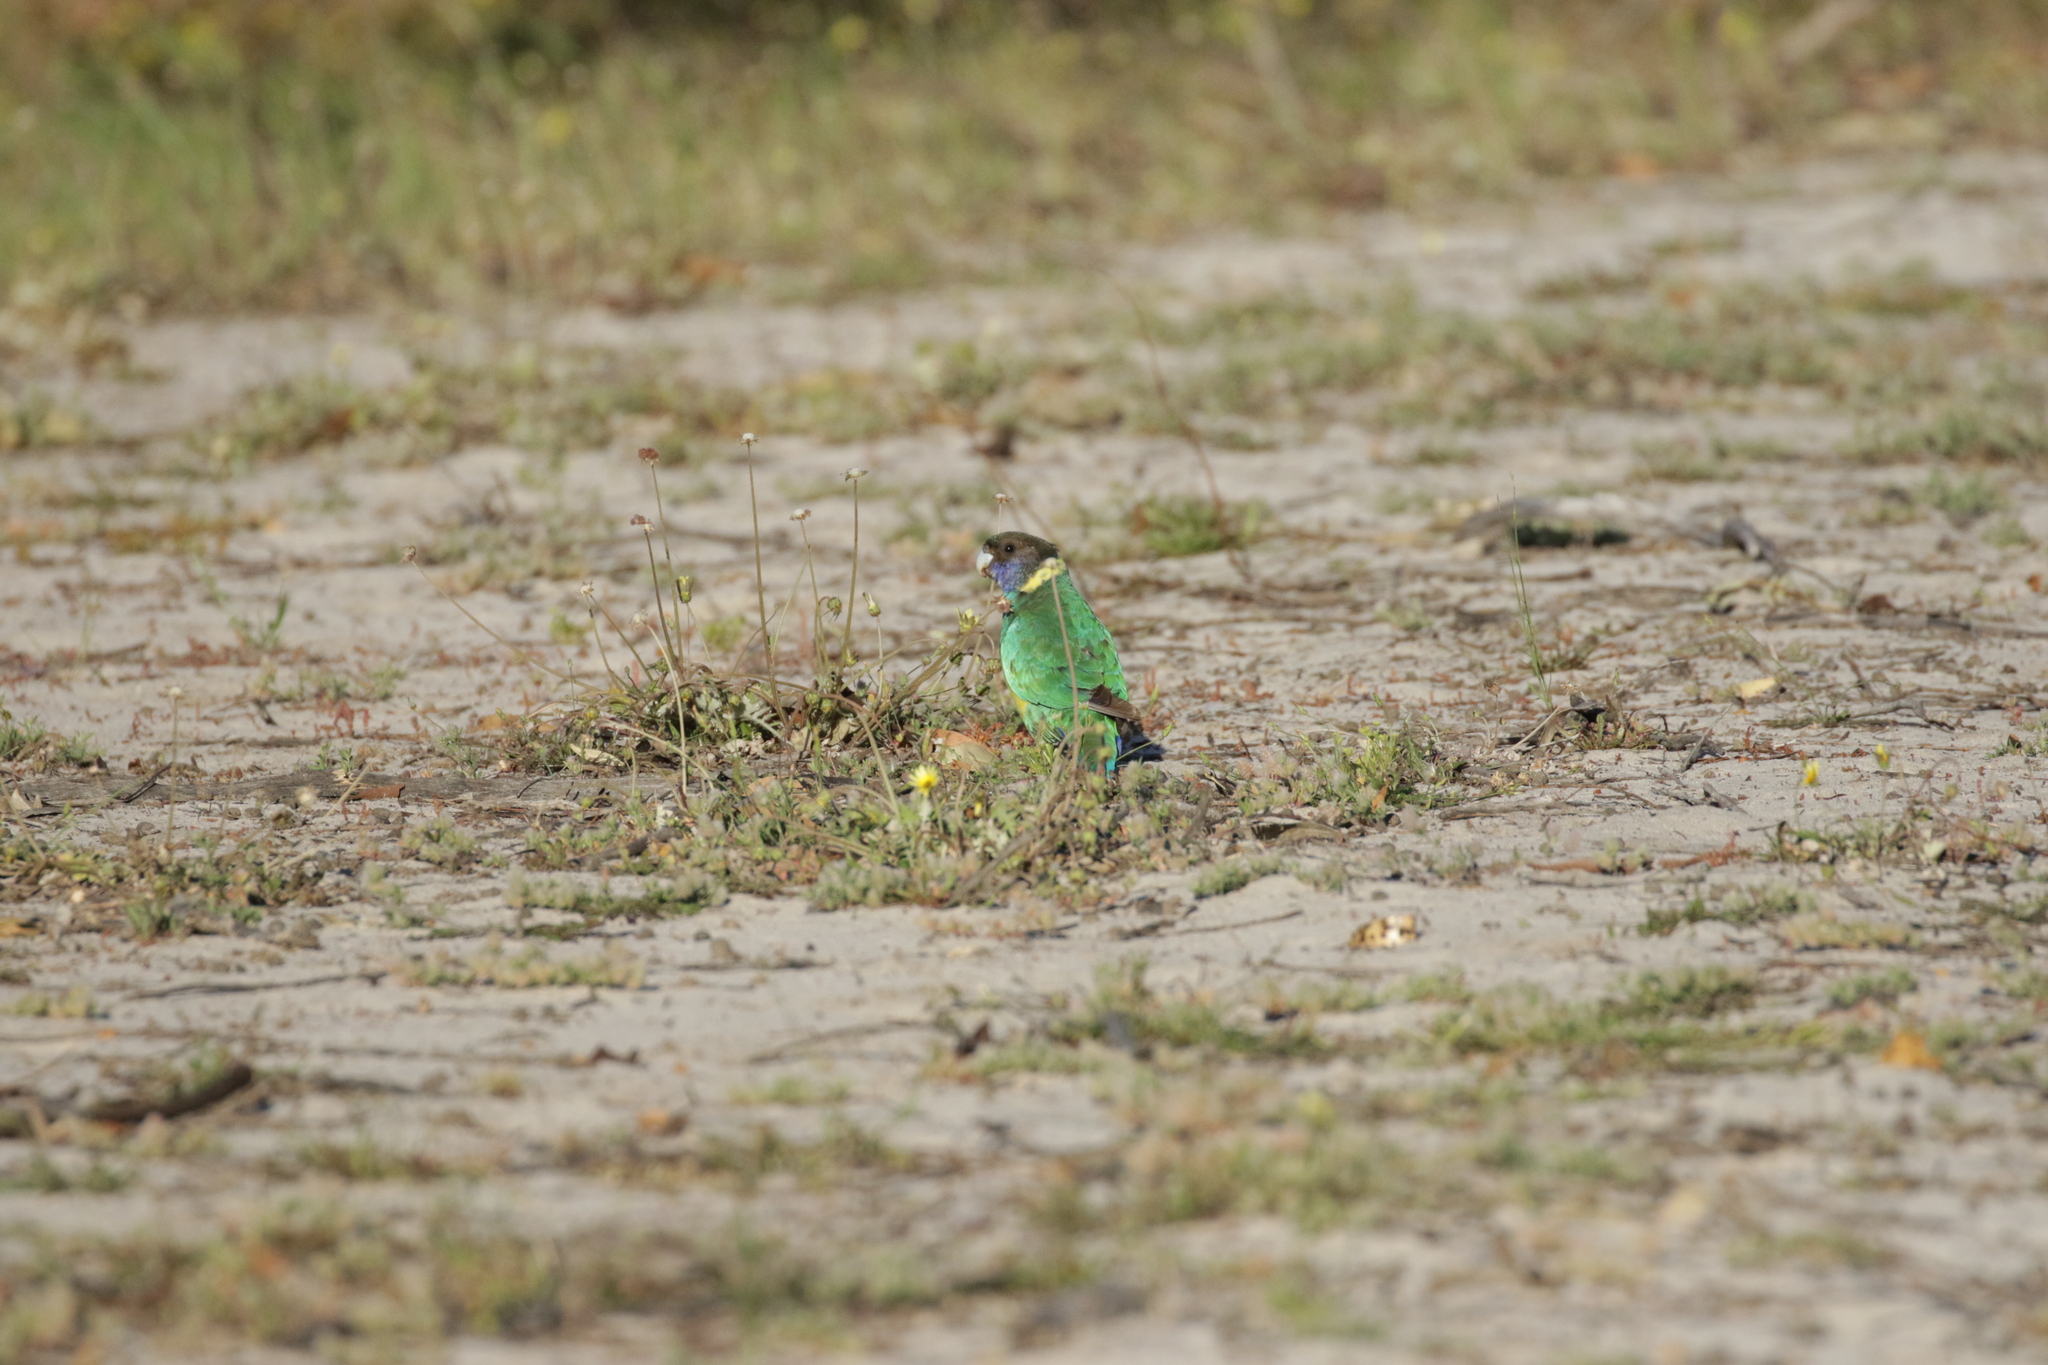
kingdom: Animalia
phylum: Chordata
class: Aves
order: Psittaciformes
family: Psittacidae
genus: Barnardius
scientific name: Barnardius zonarius
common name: Australian ringneck
